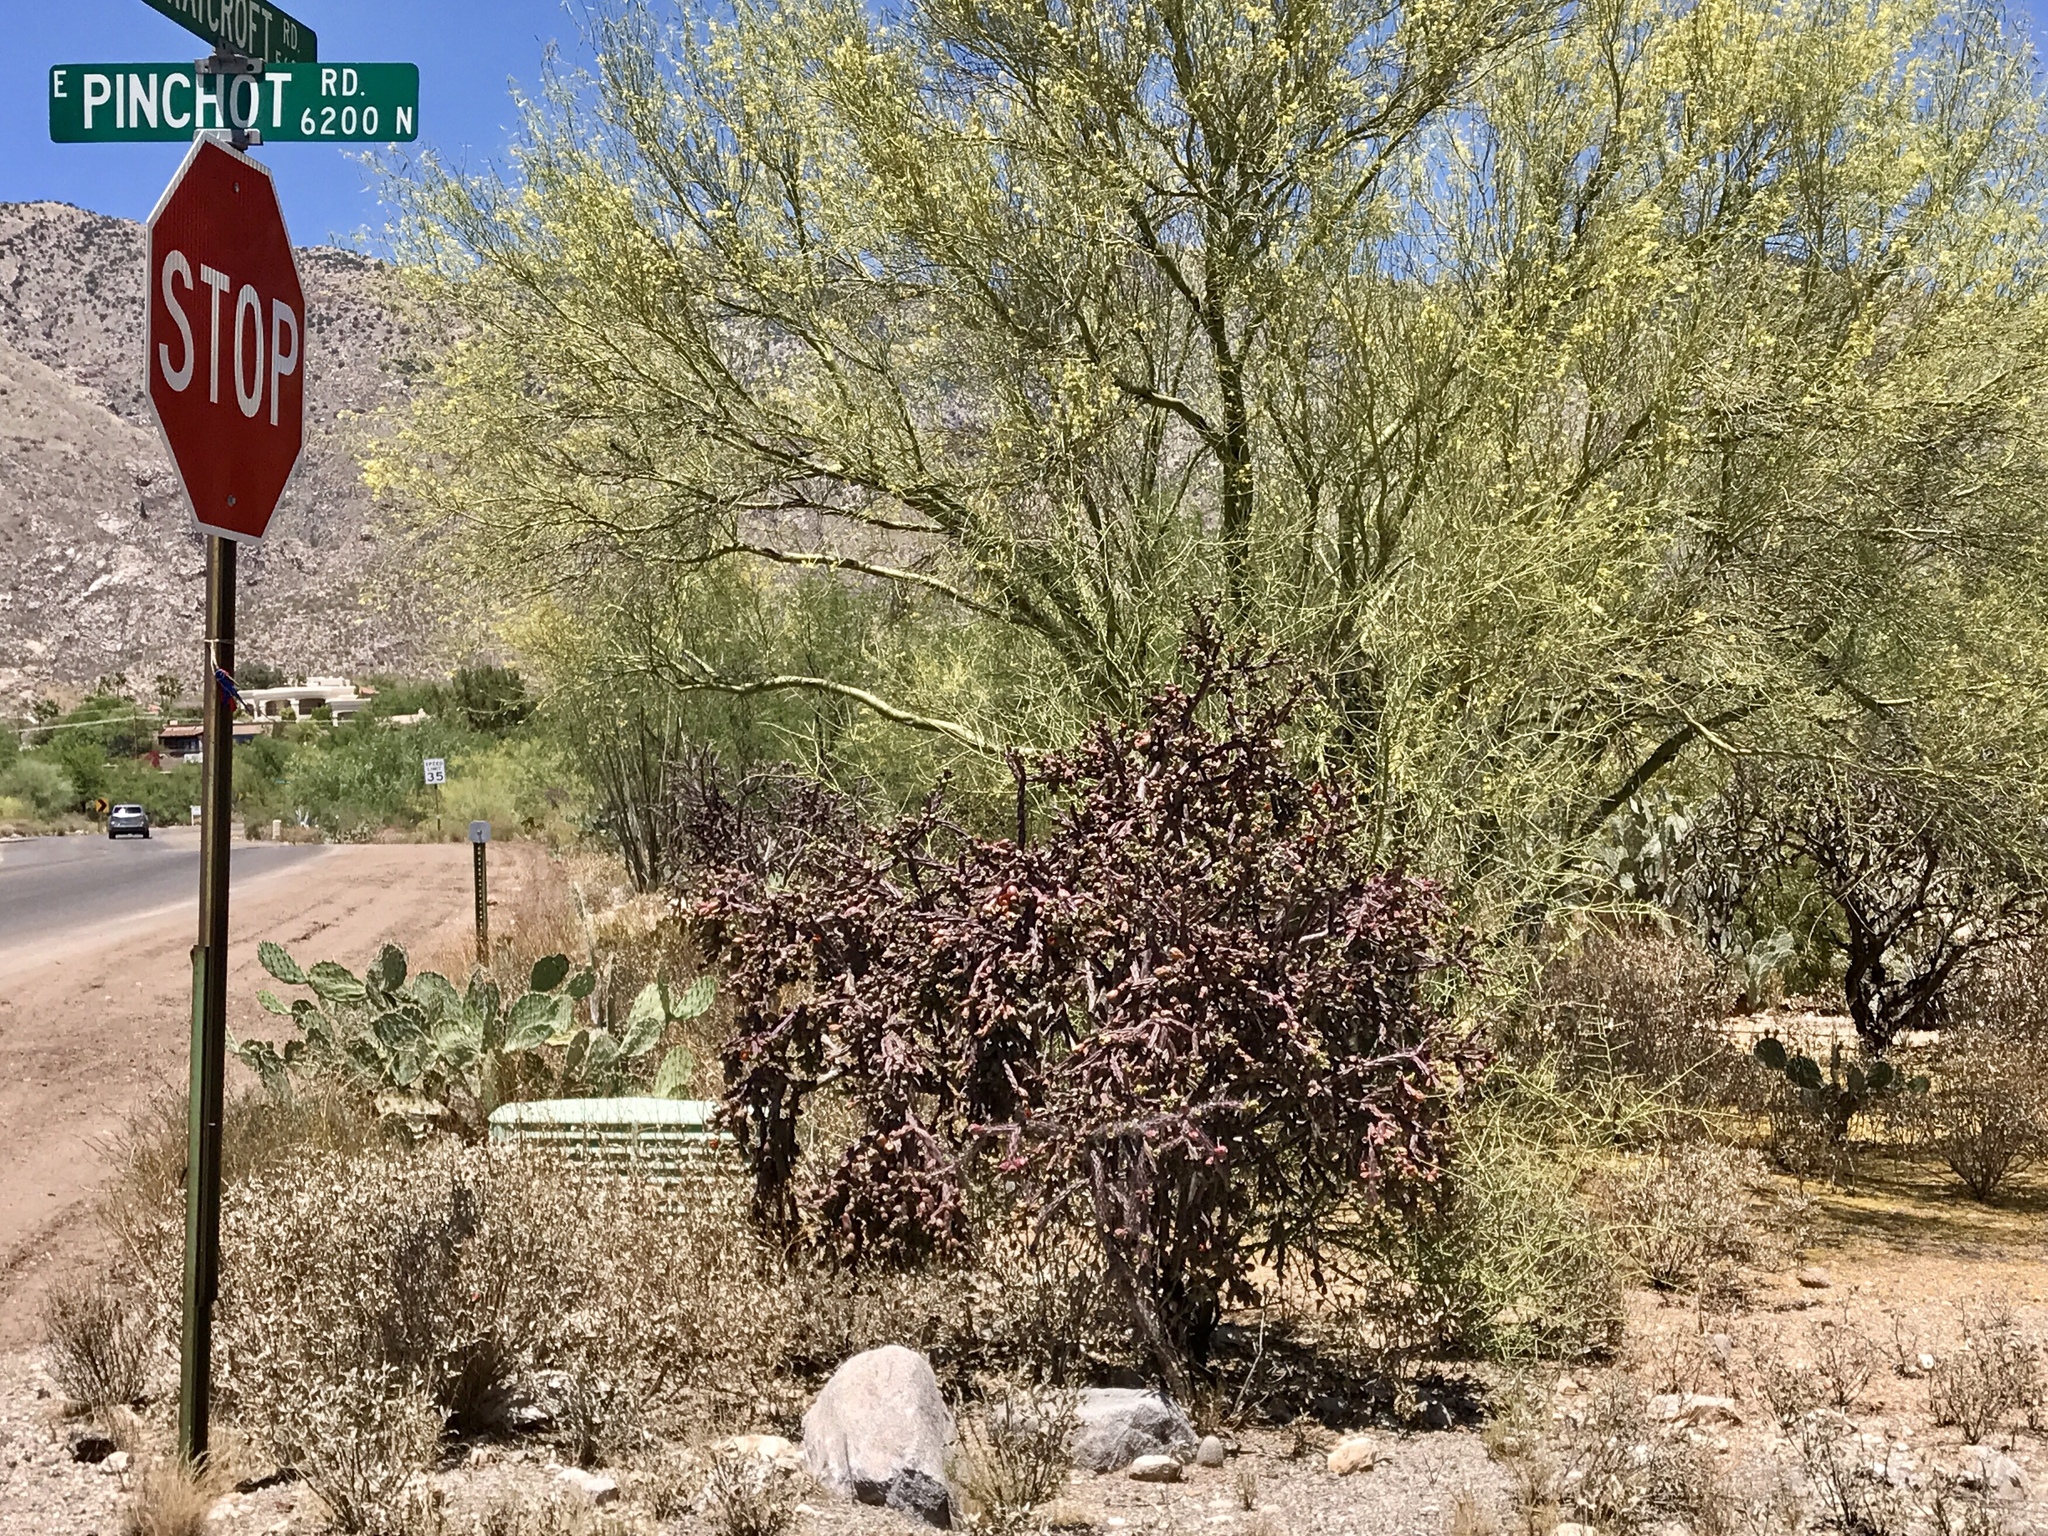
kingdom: Plantae
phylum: Tracheophyta
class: Magnoliopsida
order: Caryophyllales
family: Cactaceae
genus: Cylindropuntia
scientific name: Cylindropuntia thurberi
